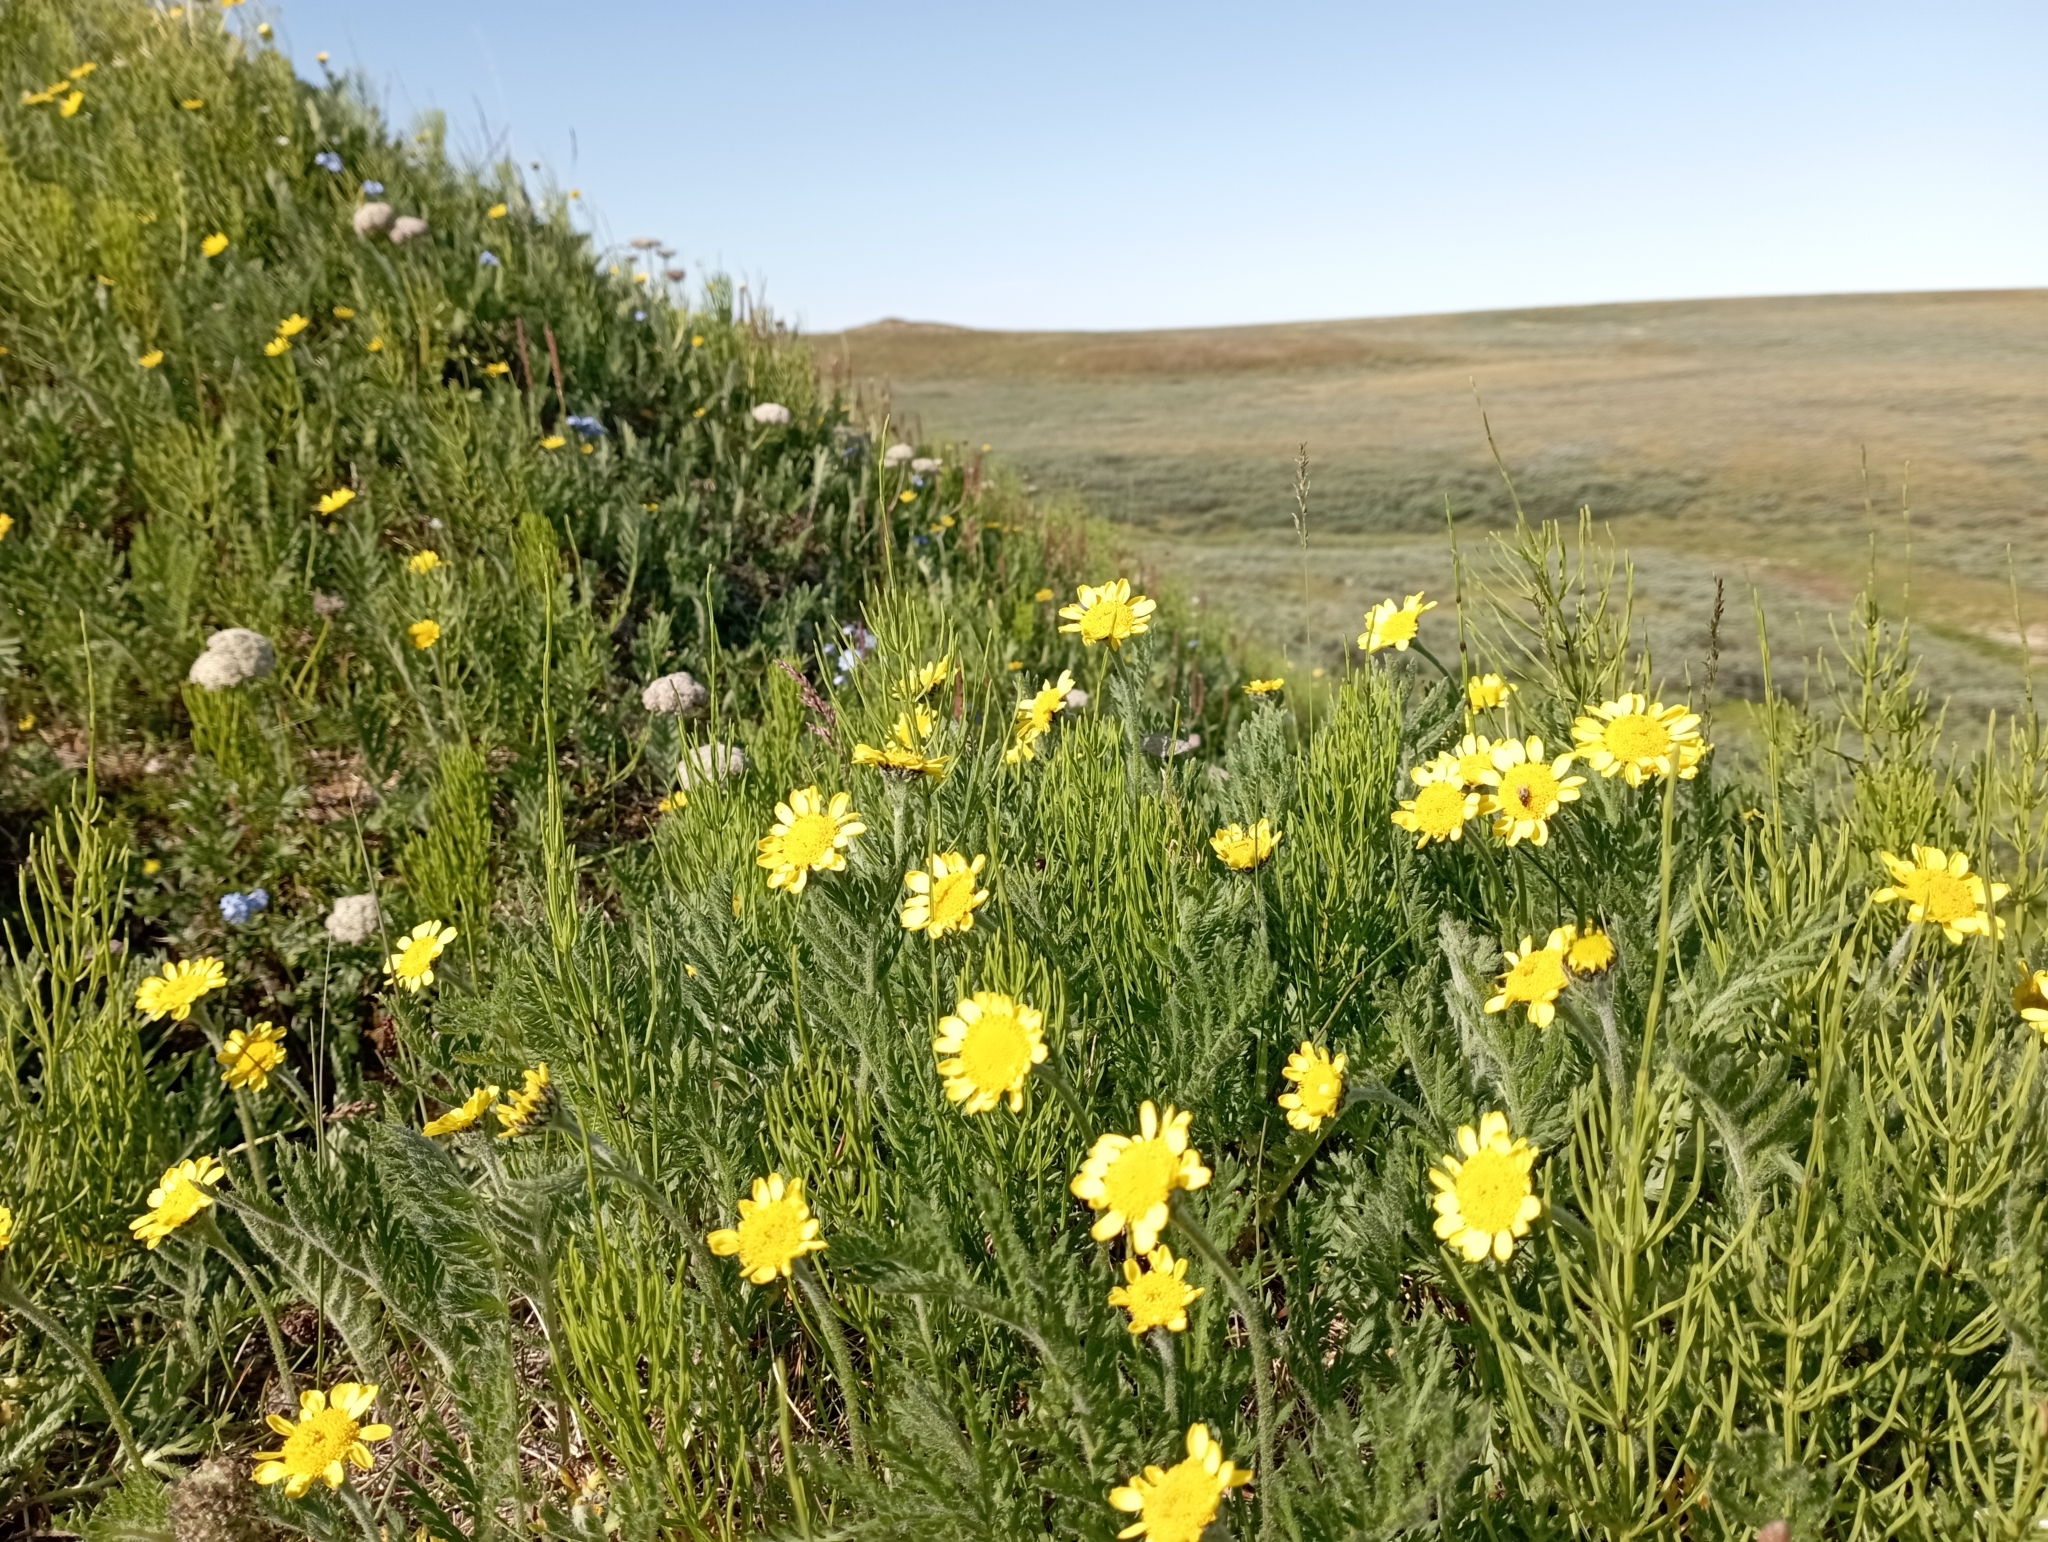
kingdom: Plantae
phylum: Tracheophyta
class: Magnoliopsida
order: Asterales
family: Asteraceae
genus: Tanacetum
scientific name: Tanacetum bipinnatum
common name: Dwarf tansy
